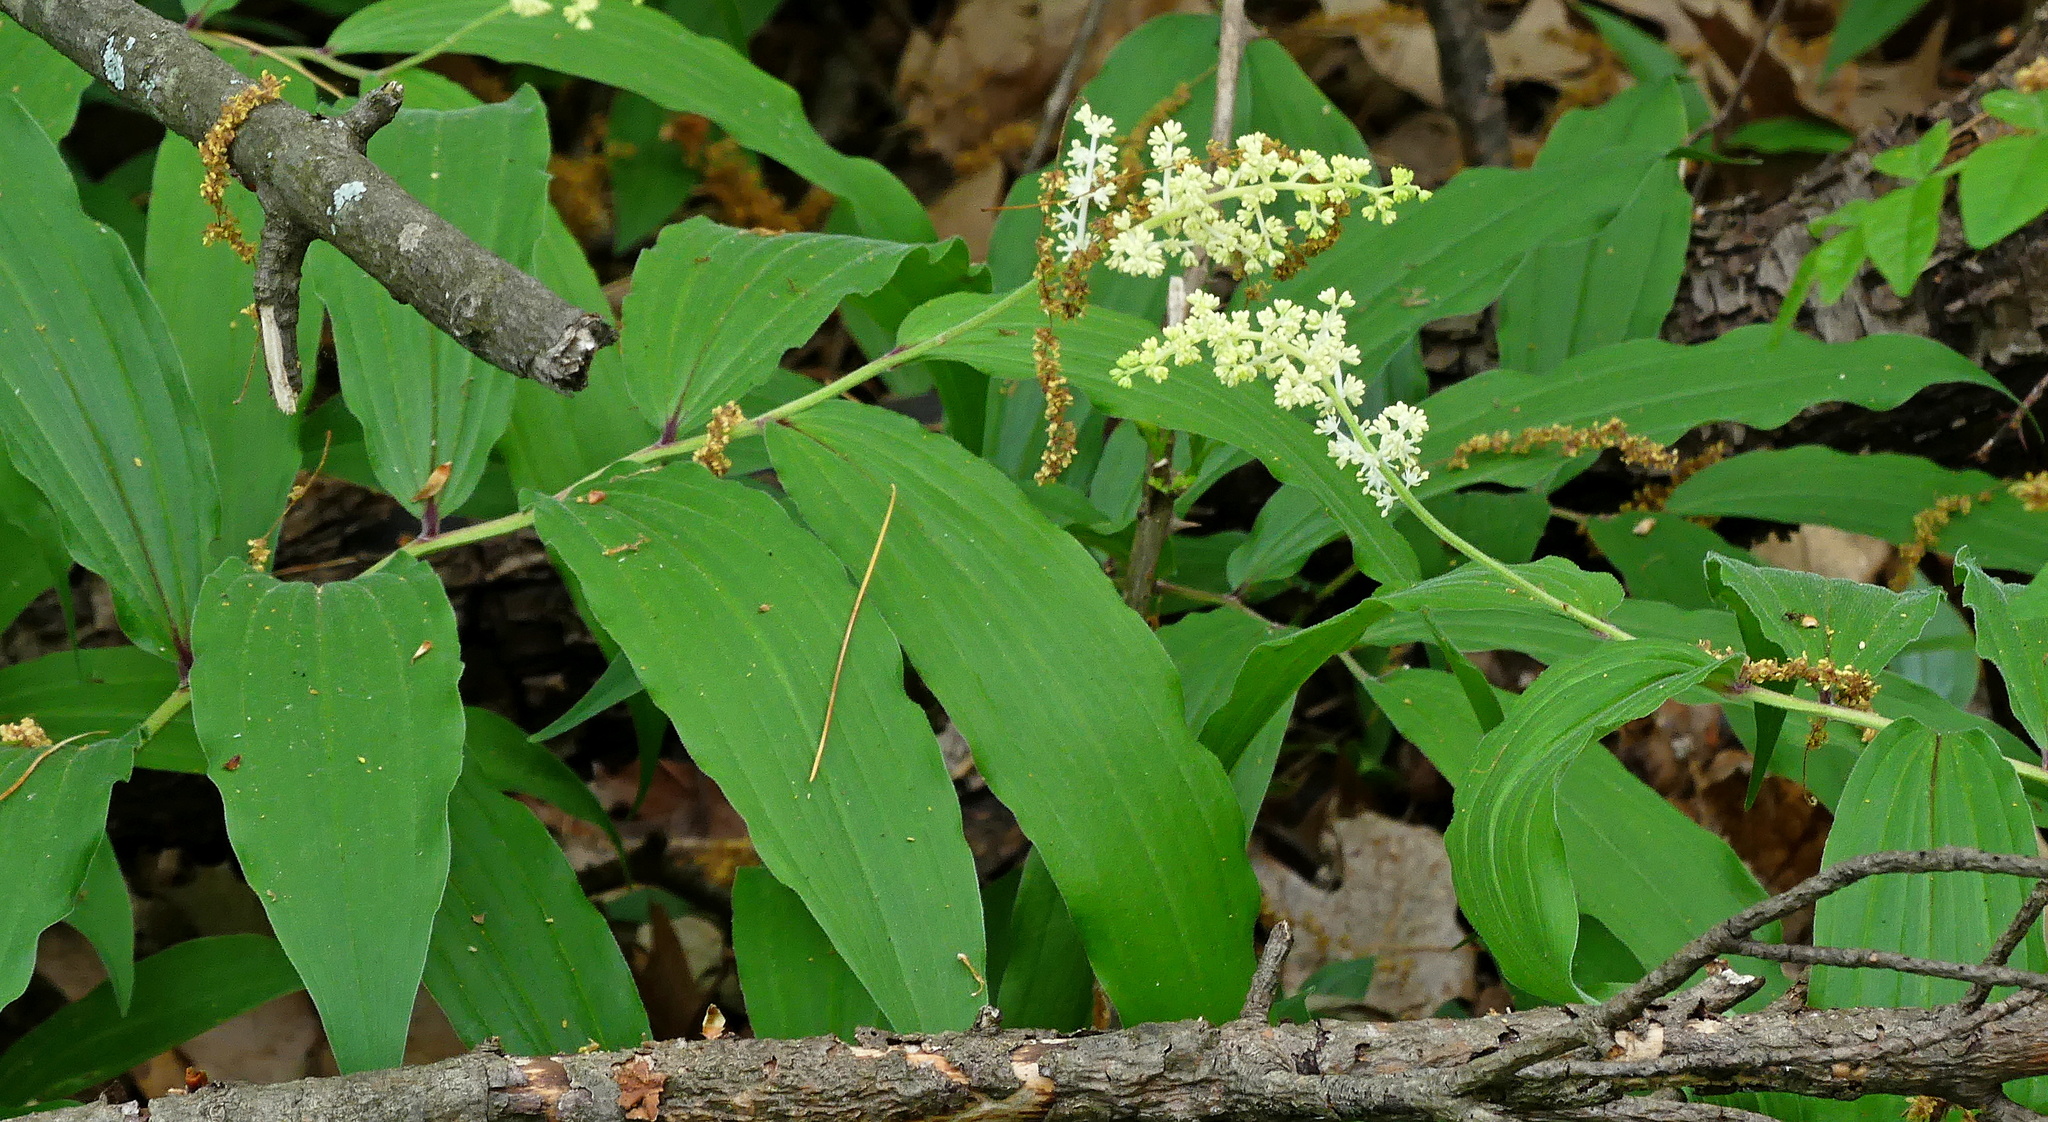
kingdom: Plantae
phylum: Tracheophyta
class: Liliopsida
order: Asparagales
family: Asparagaceae
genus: Maianthemum
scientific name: Maianthemum racemosum
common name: False spikenard
